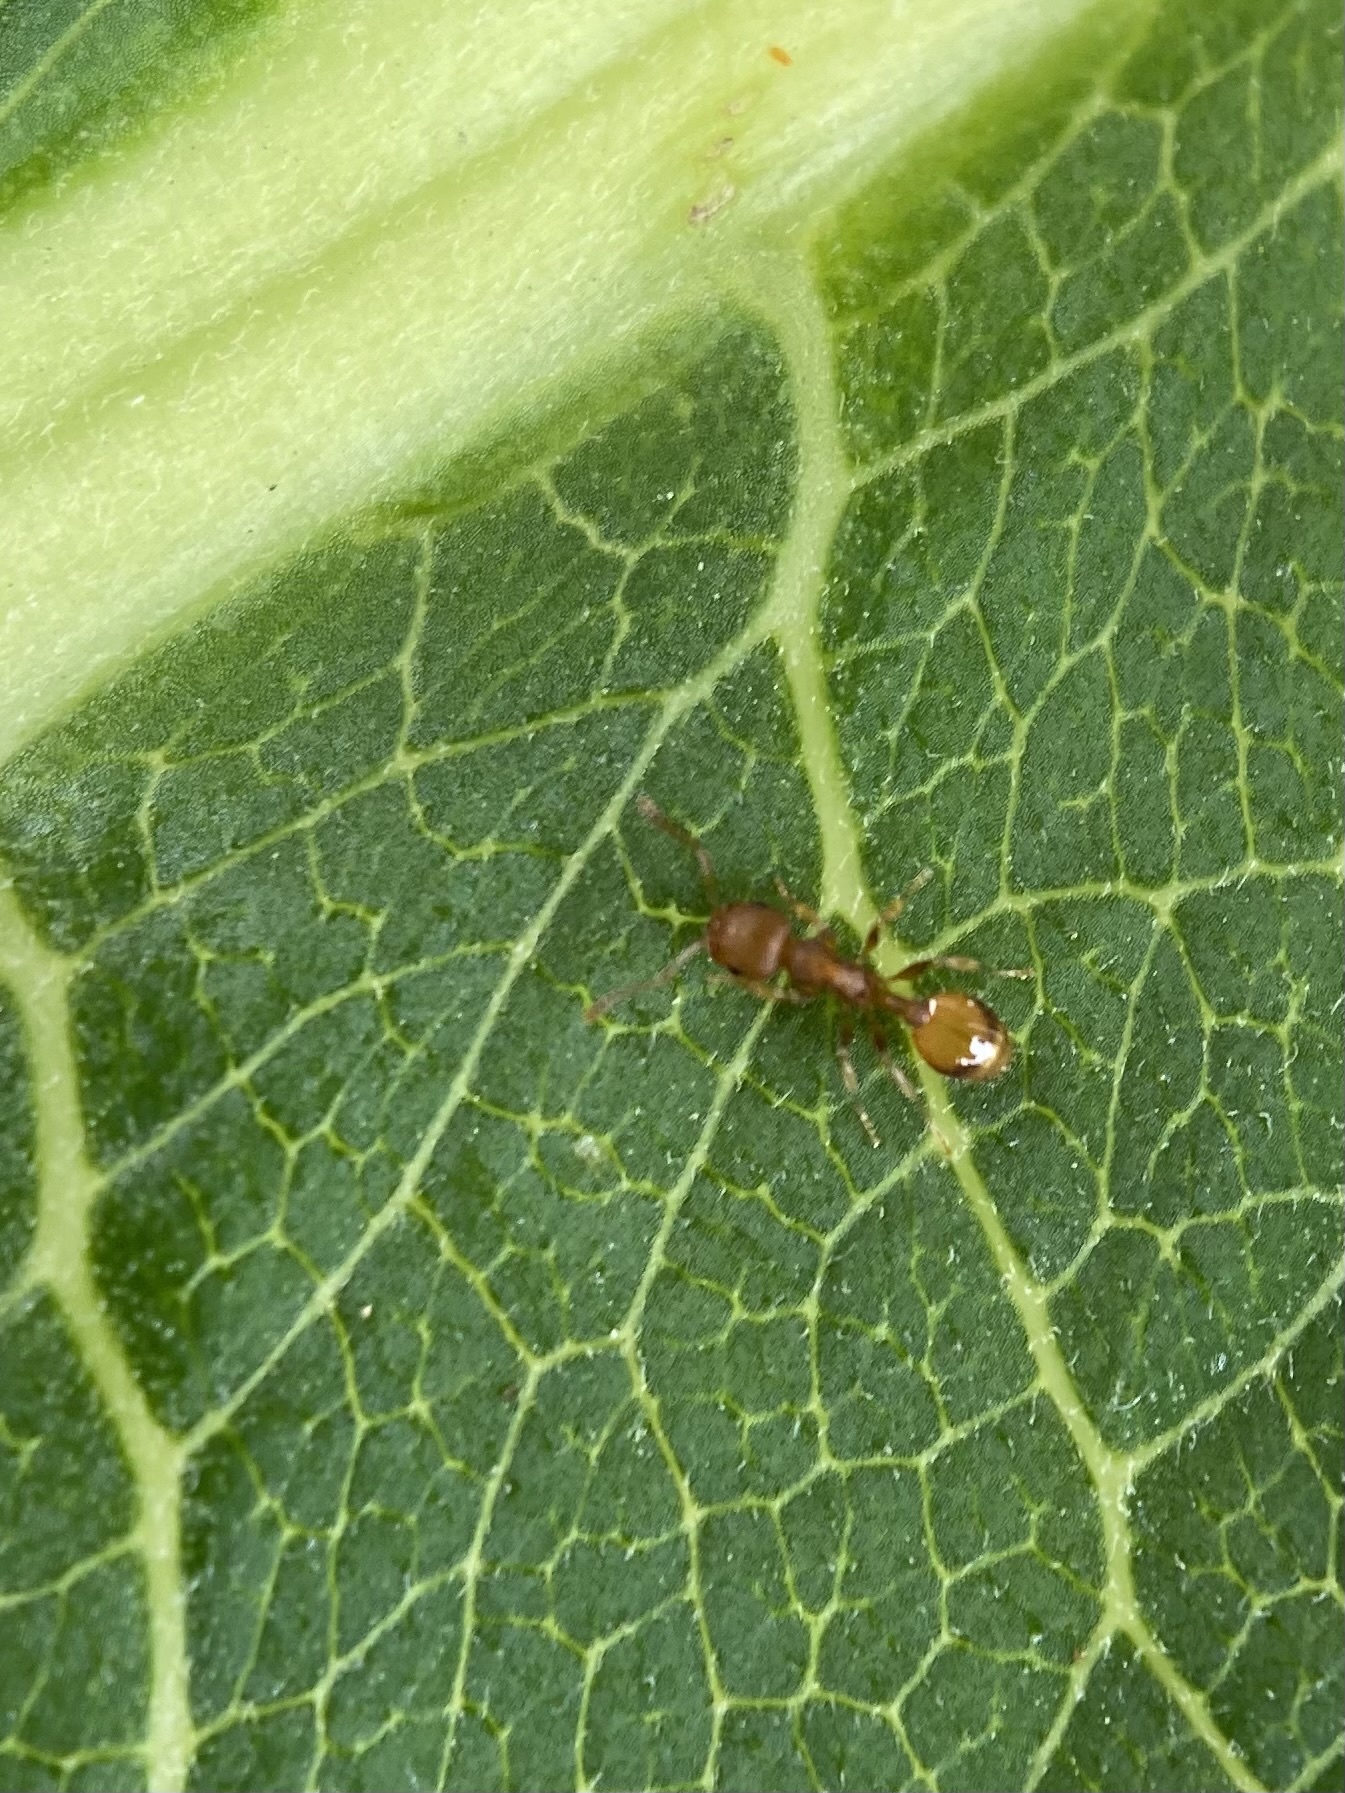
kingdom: Animalia
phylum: Arthropoda
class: Insecta
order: Hymenoptera
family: Formicidae
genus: Temnothorax
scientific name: Temnothorax curvispinosus
